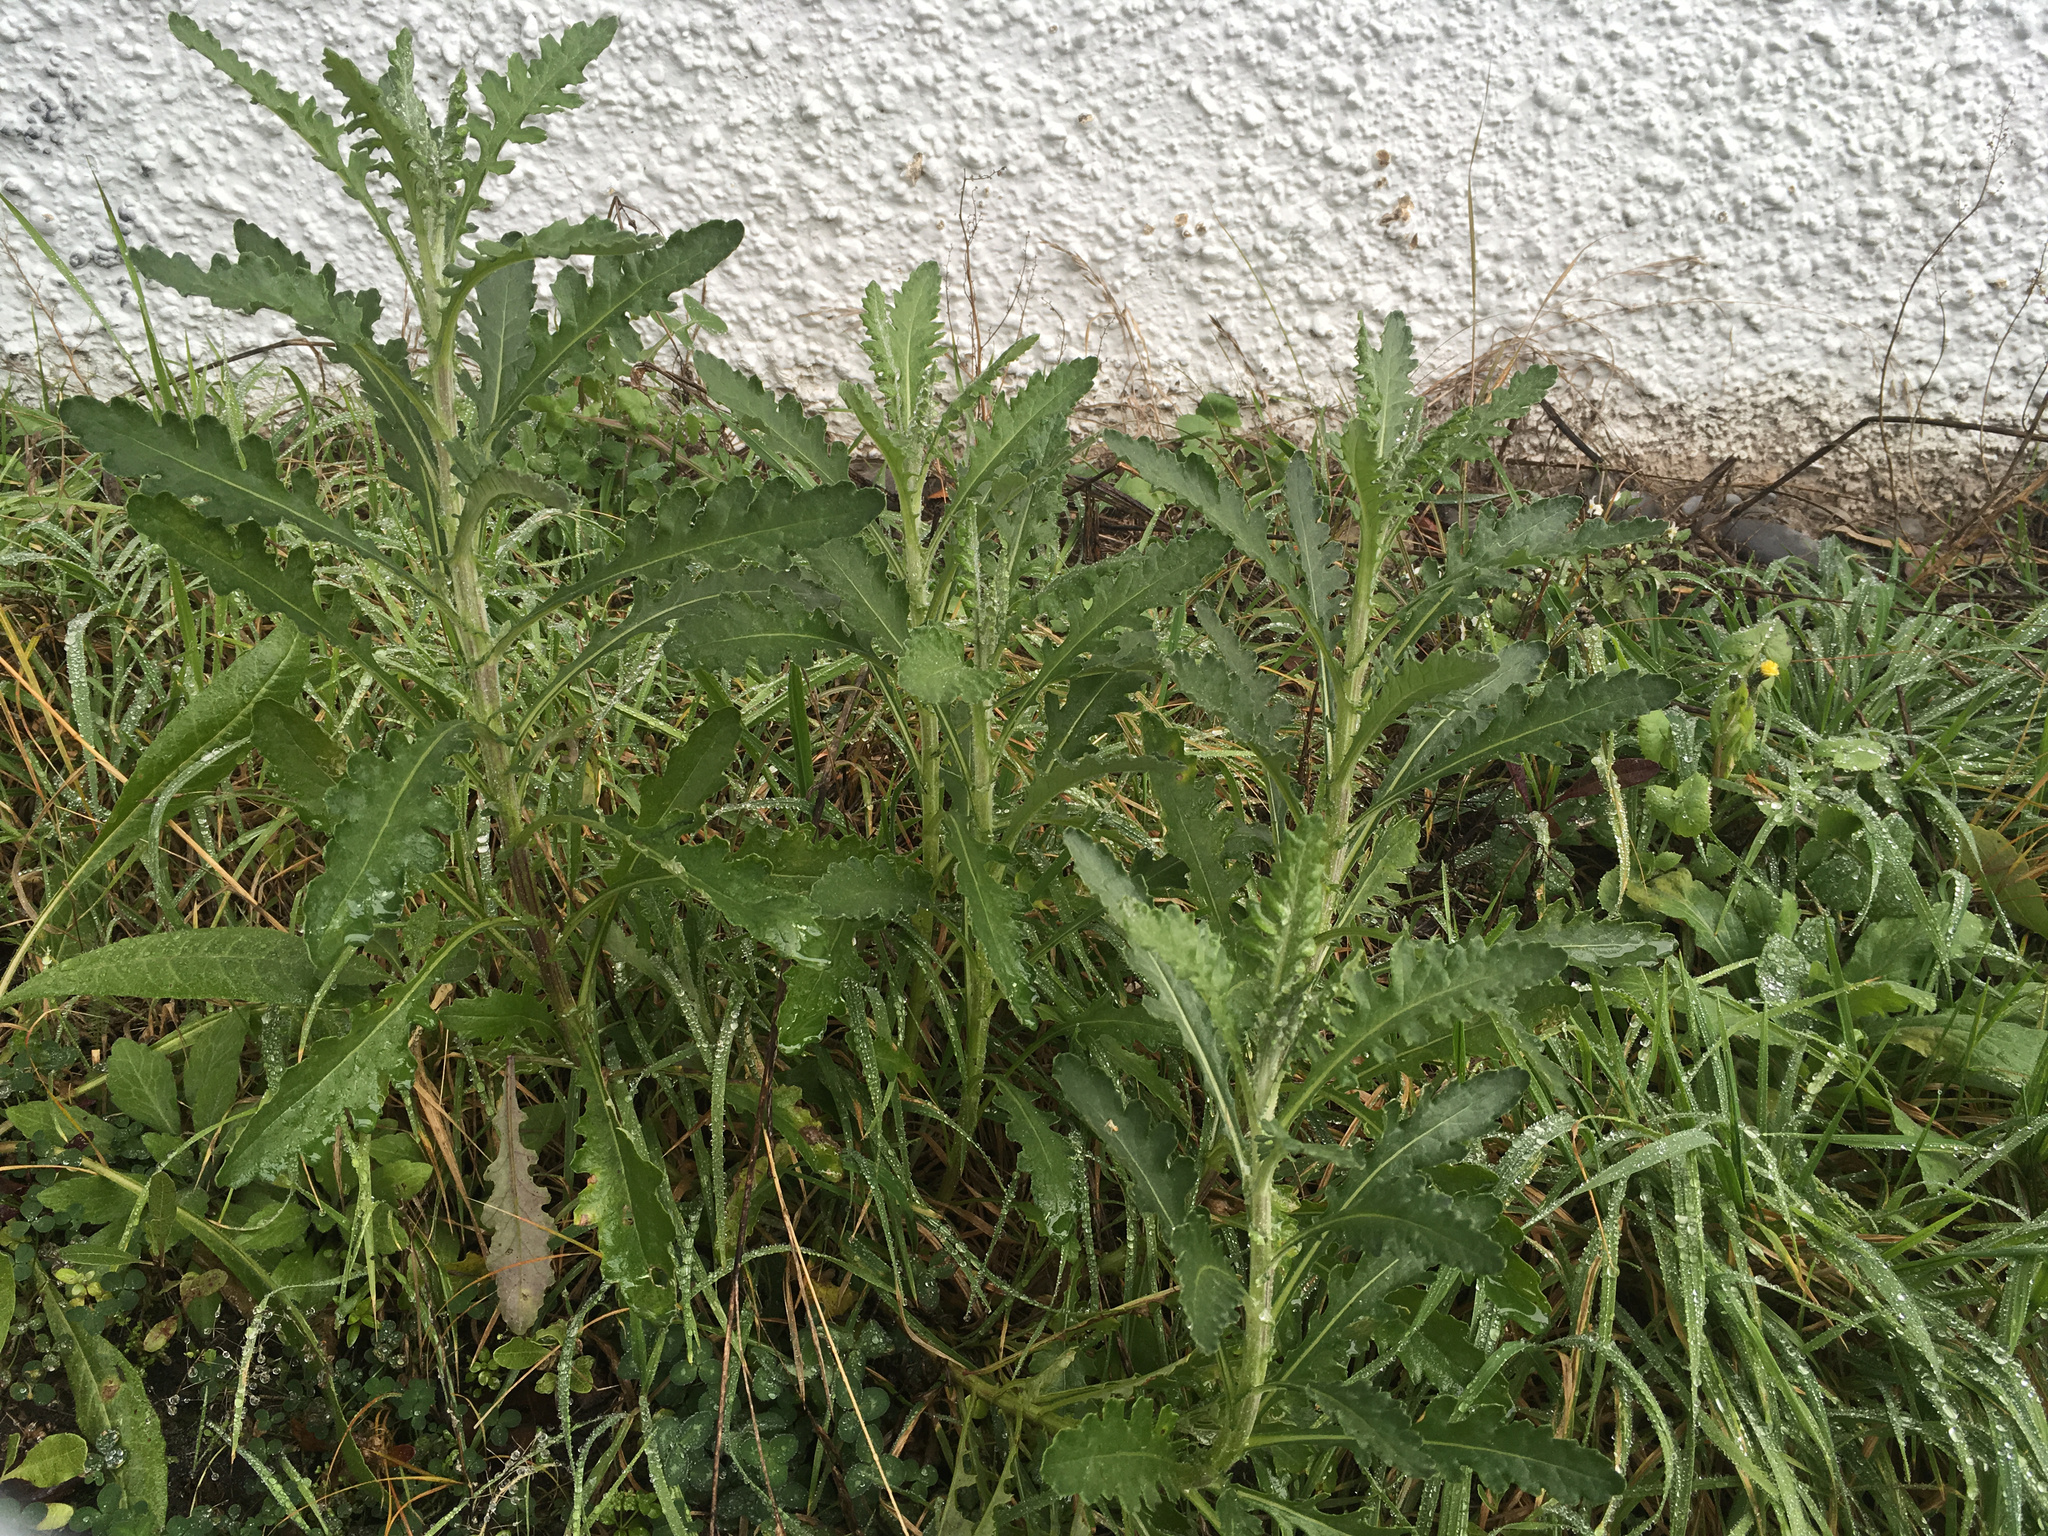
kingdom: Plantae
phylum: Tracheophyta
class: Magnoliopsida
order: Asterales
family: Asteraceae
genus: Senecio
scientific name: Senecio glomeratus
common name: Cutleaf burnweed
